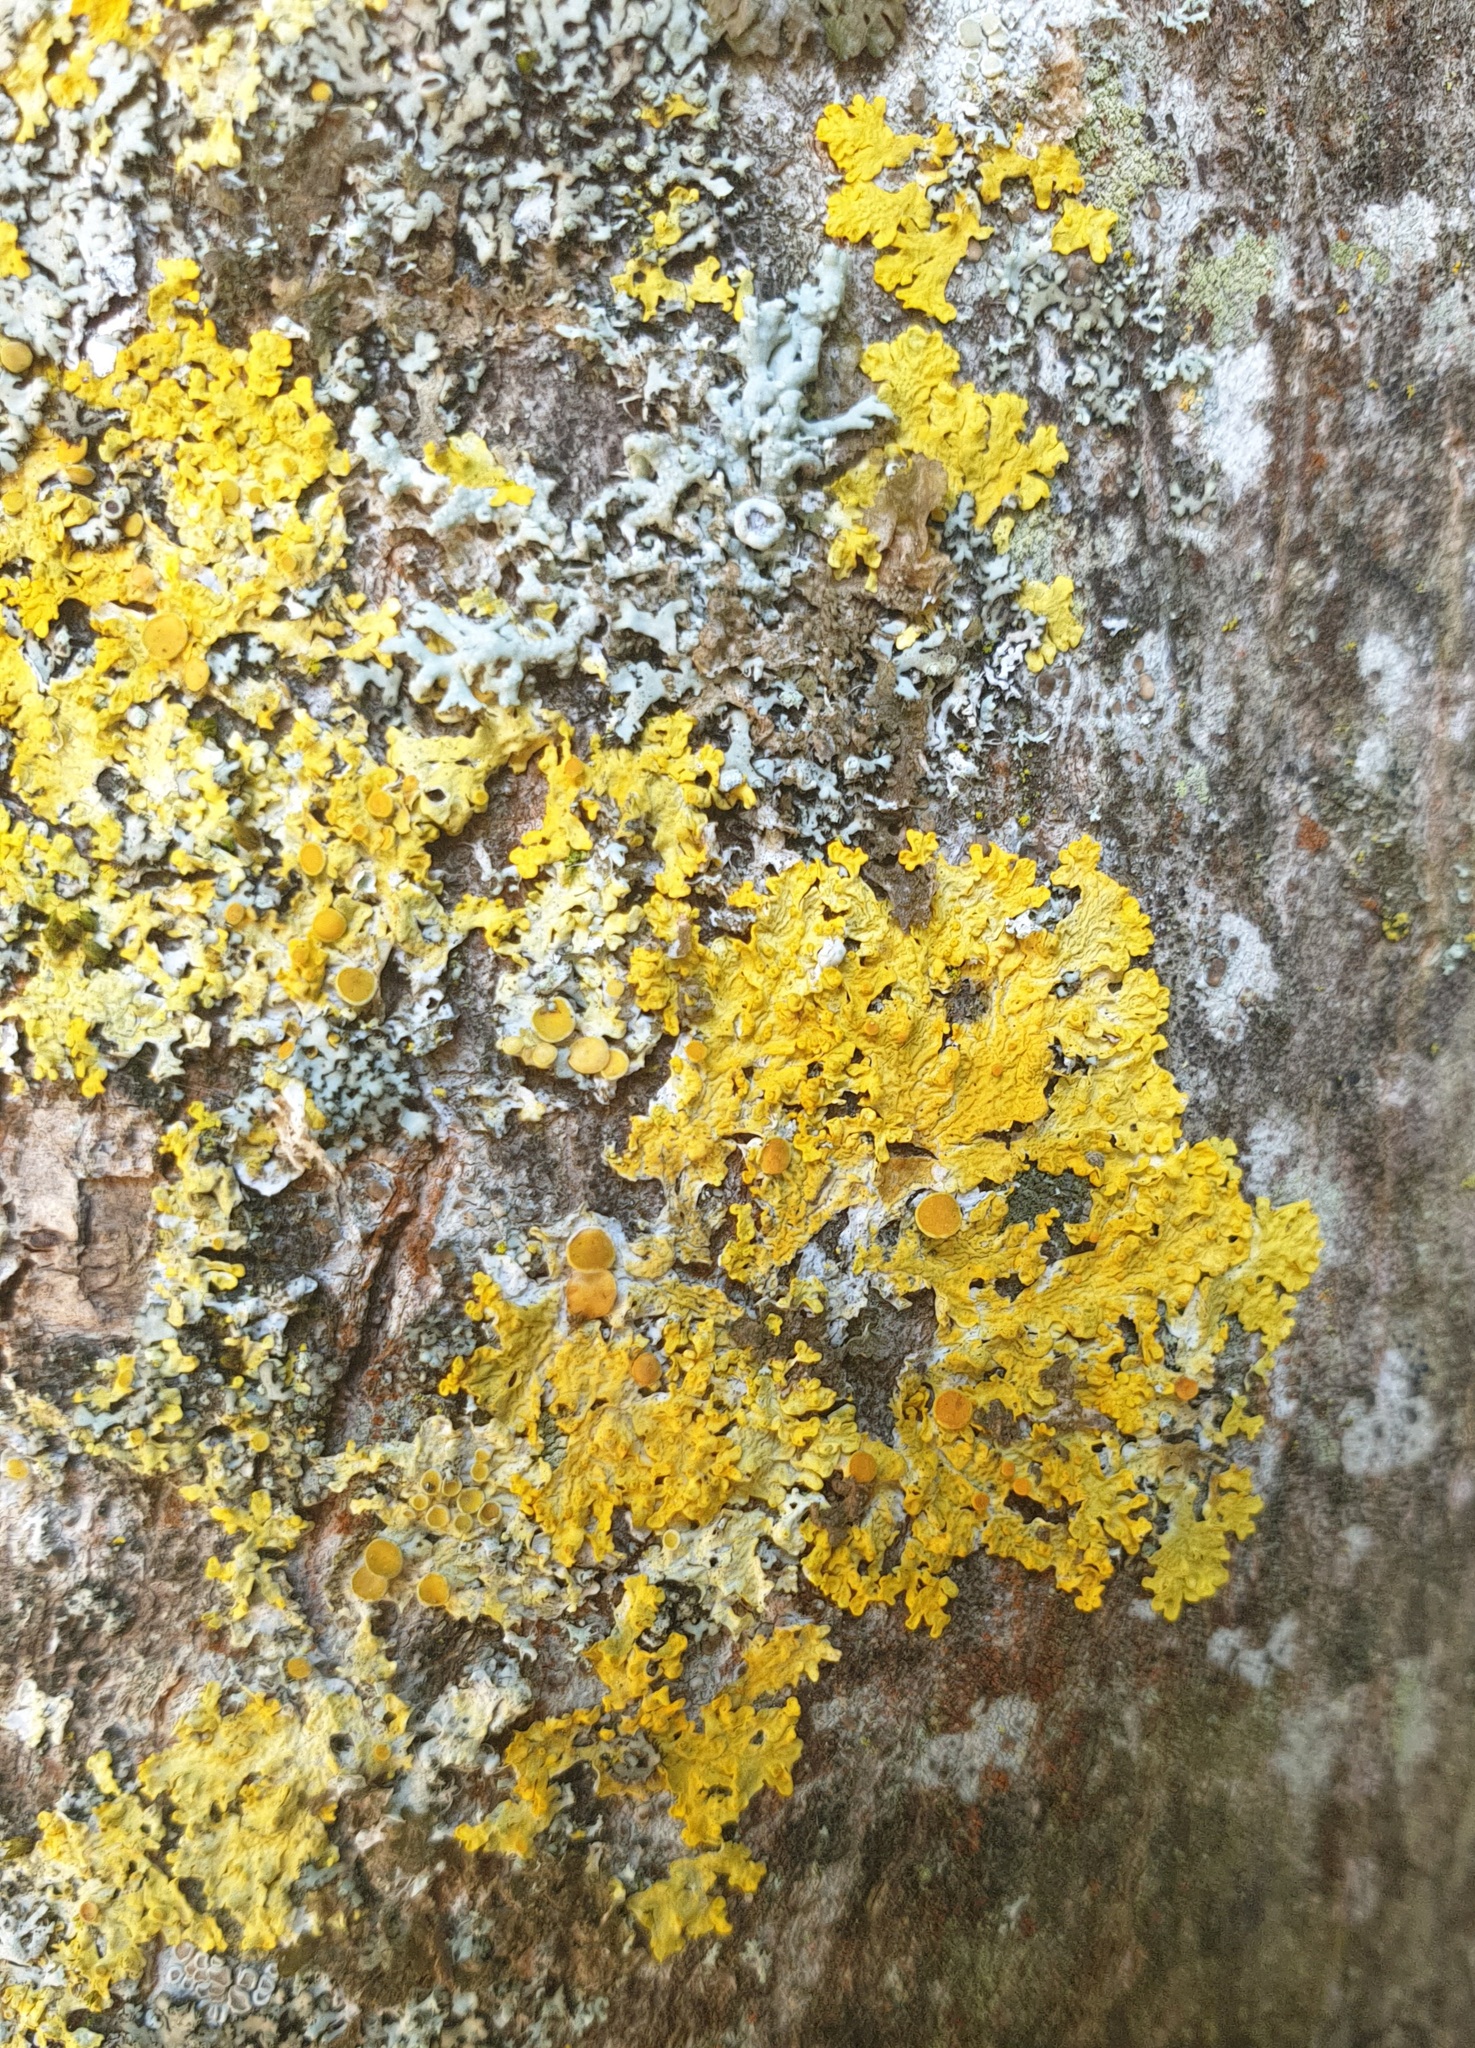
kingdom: Fungi
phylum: Ascomycota
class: Lecanoromycetes
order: Teloschistales
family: Teloschistaceae
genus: Xanthoria
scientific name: Xanthoria parietina
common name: Common orange lichen
